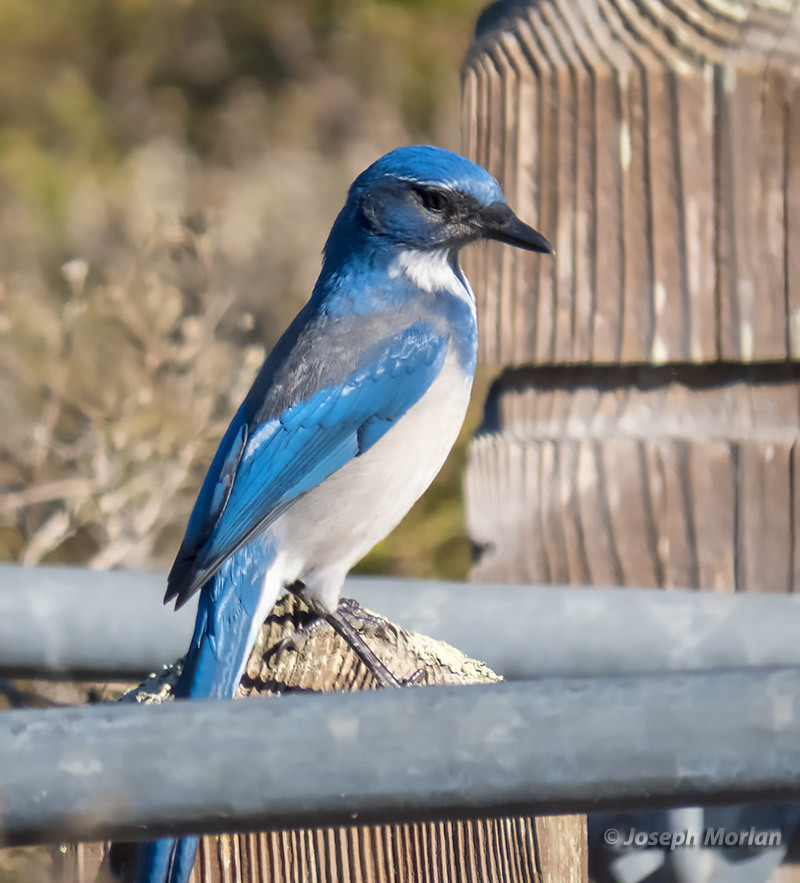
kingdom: Animalia
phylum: Chordata
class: Aves
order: Passeriformes
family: Corvidae
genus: Aphelocoma
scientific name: Aphelocoma californica
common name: California scrub-jay
